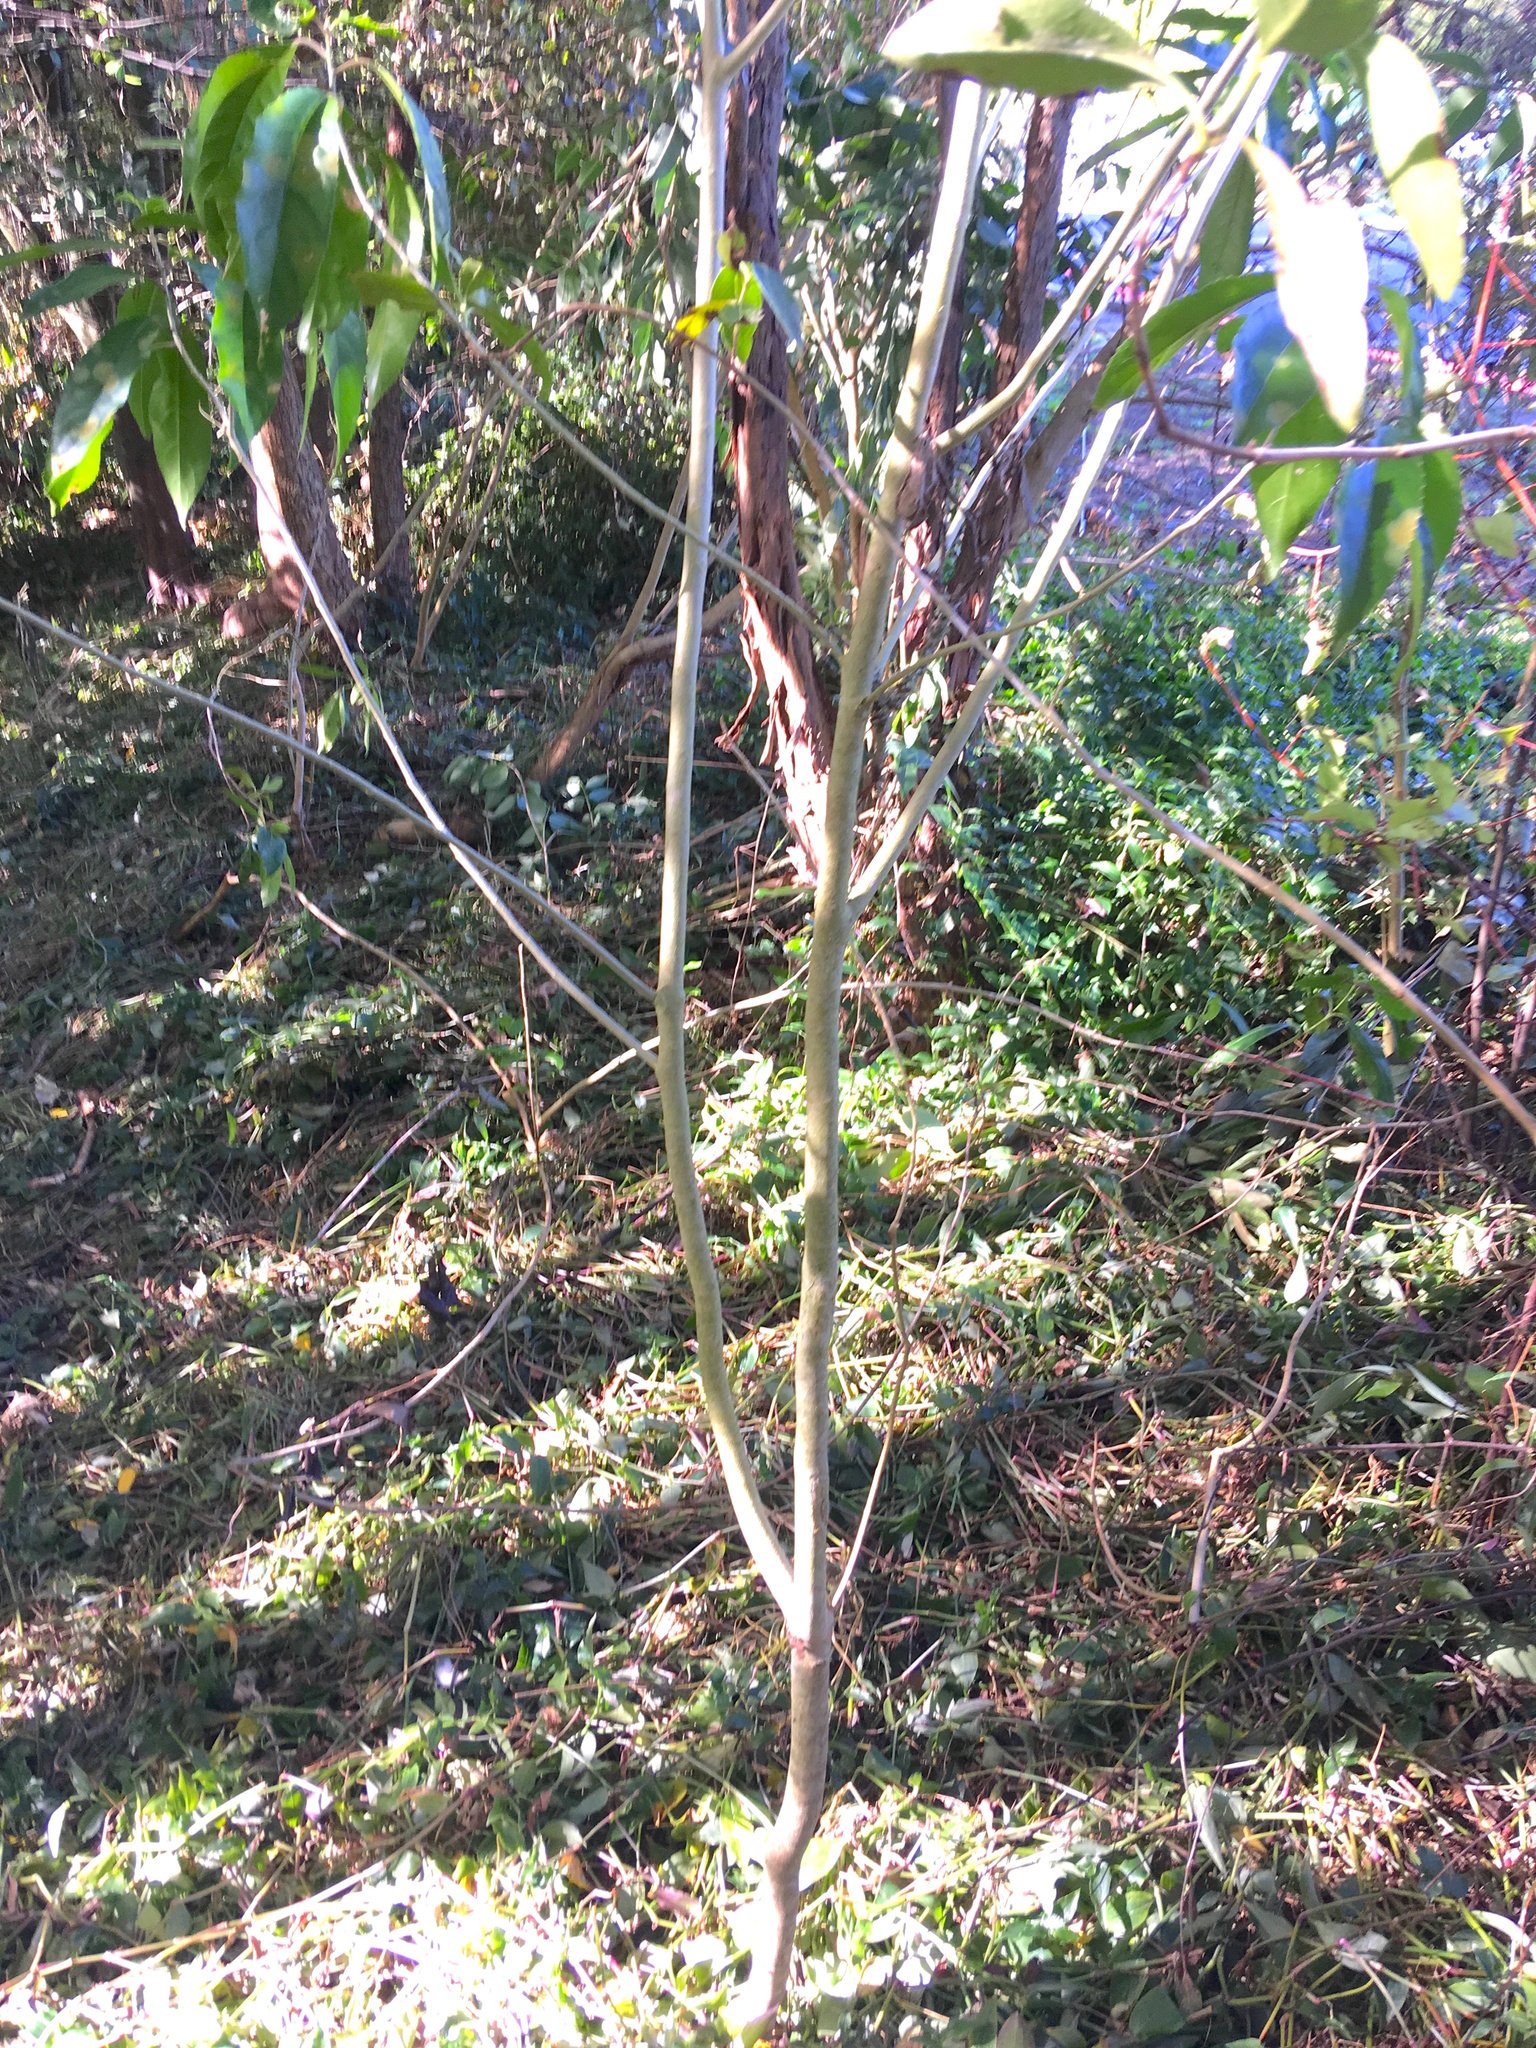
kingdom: Plantae
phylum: Tracheophyta
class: Magnoliopsida
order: Malpighiales
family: Violaceae
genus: Melicytus
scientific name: Melicytus ramiflorus
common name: Mahoe
